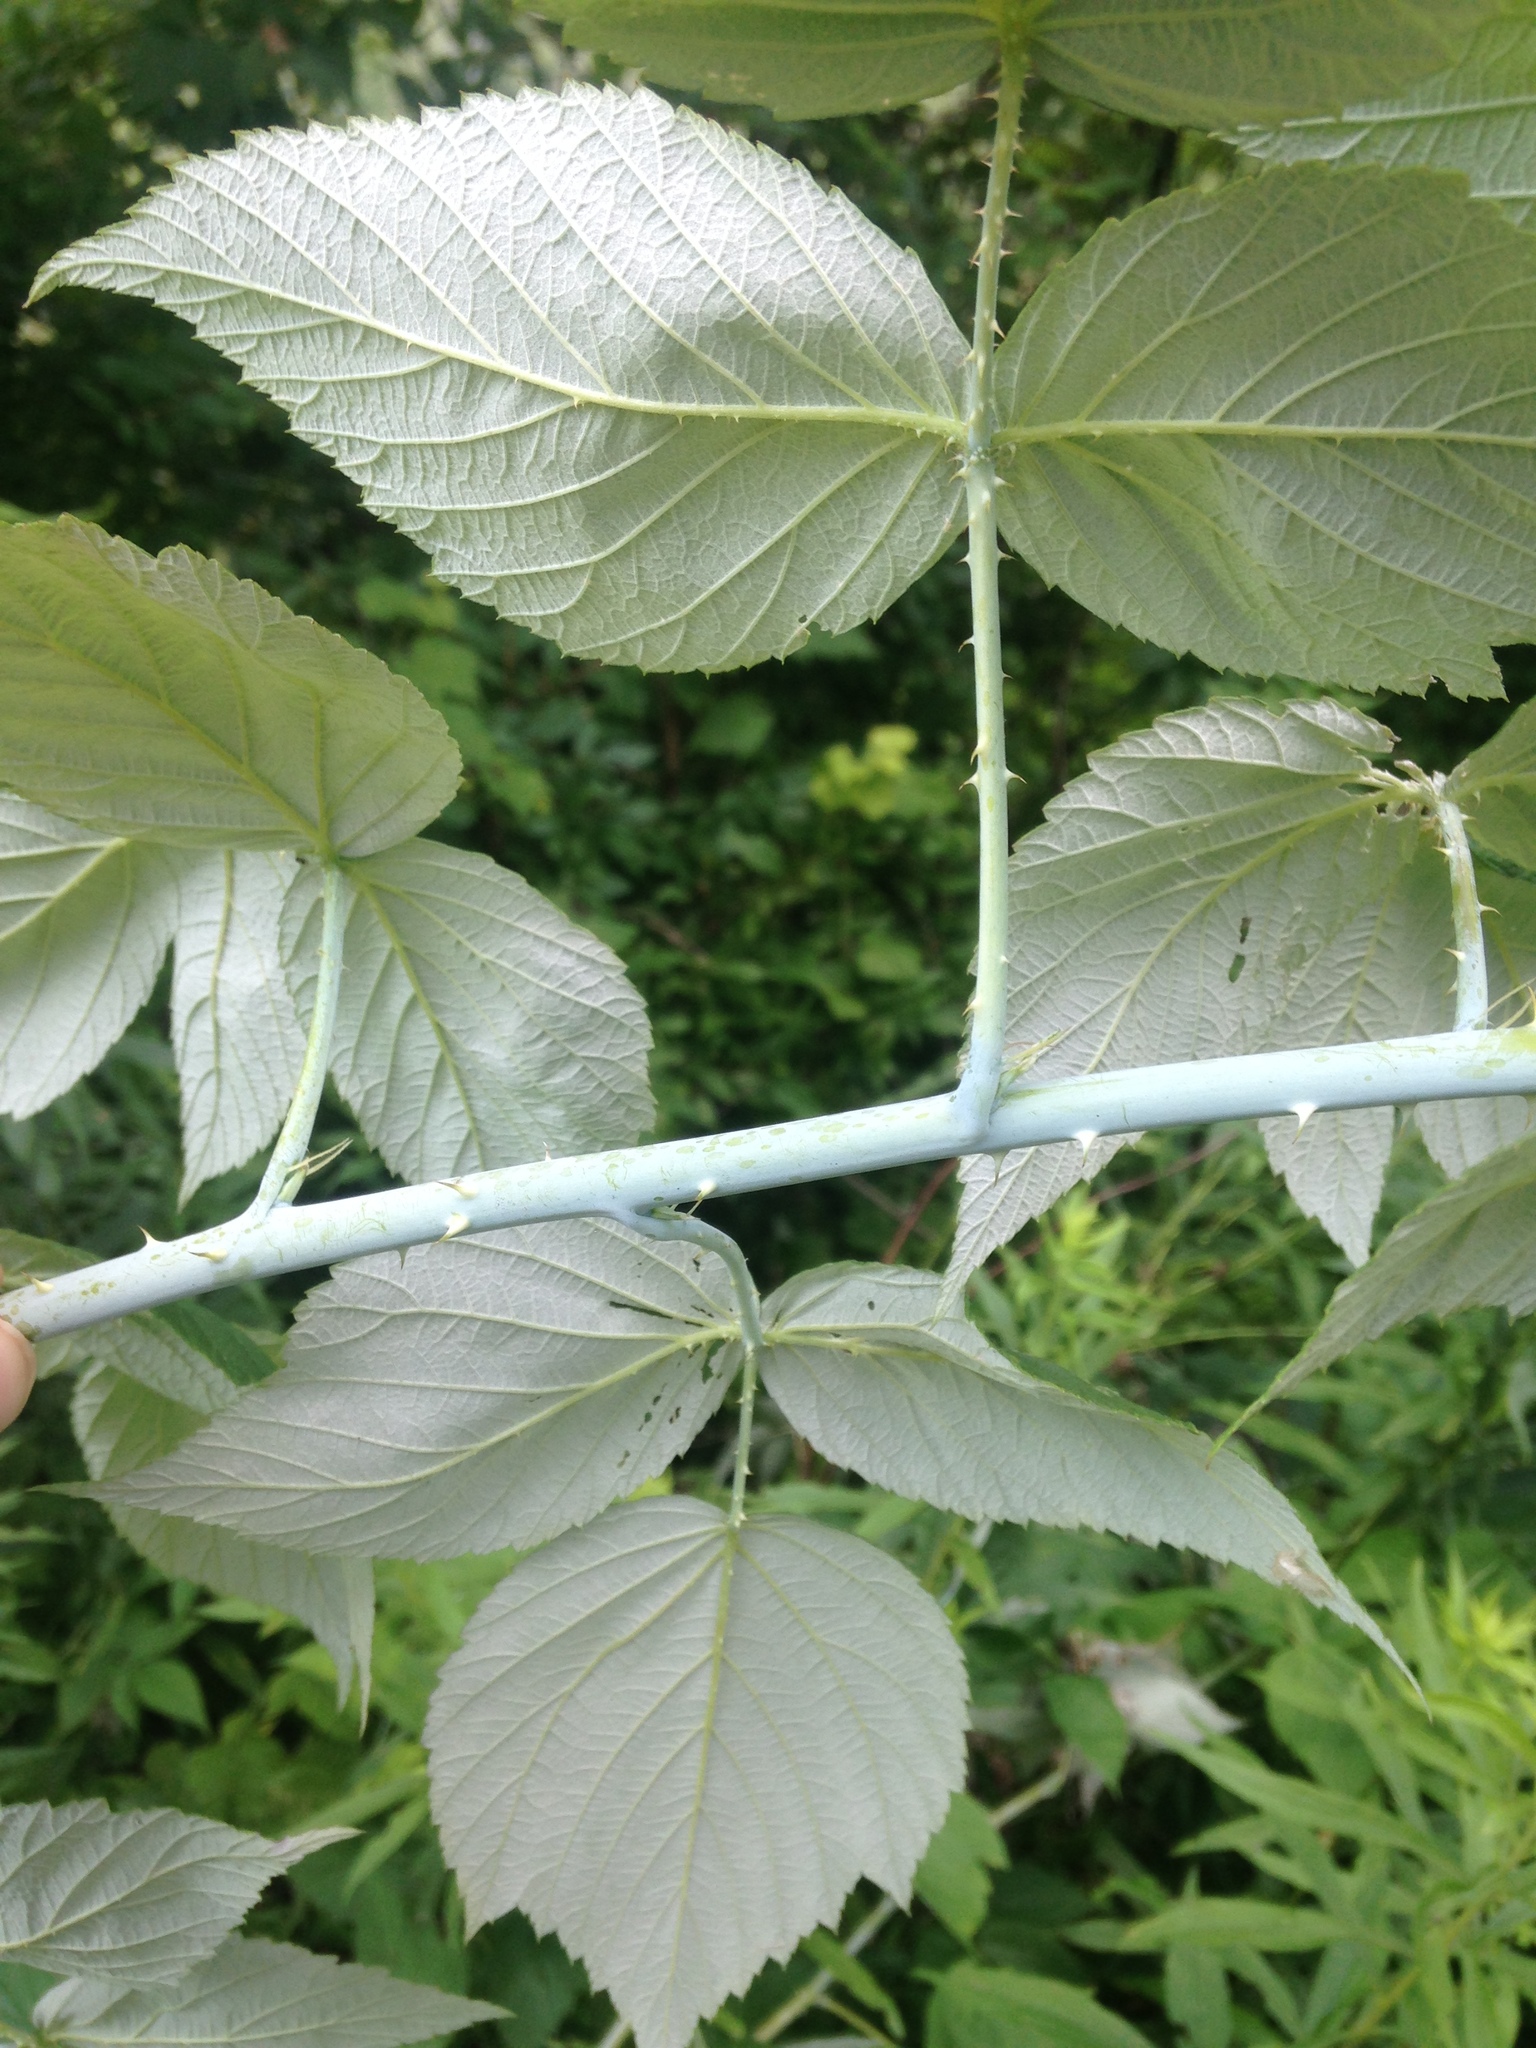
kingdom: Plantae
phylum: Tracheophyta
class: Magnoliopsida
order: Rosales
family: Rosaceae
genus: Rubus
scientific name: Rubus occidentalis
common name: Black raspberry
